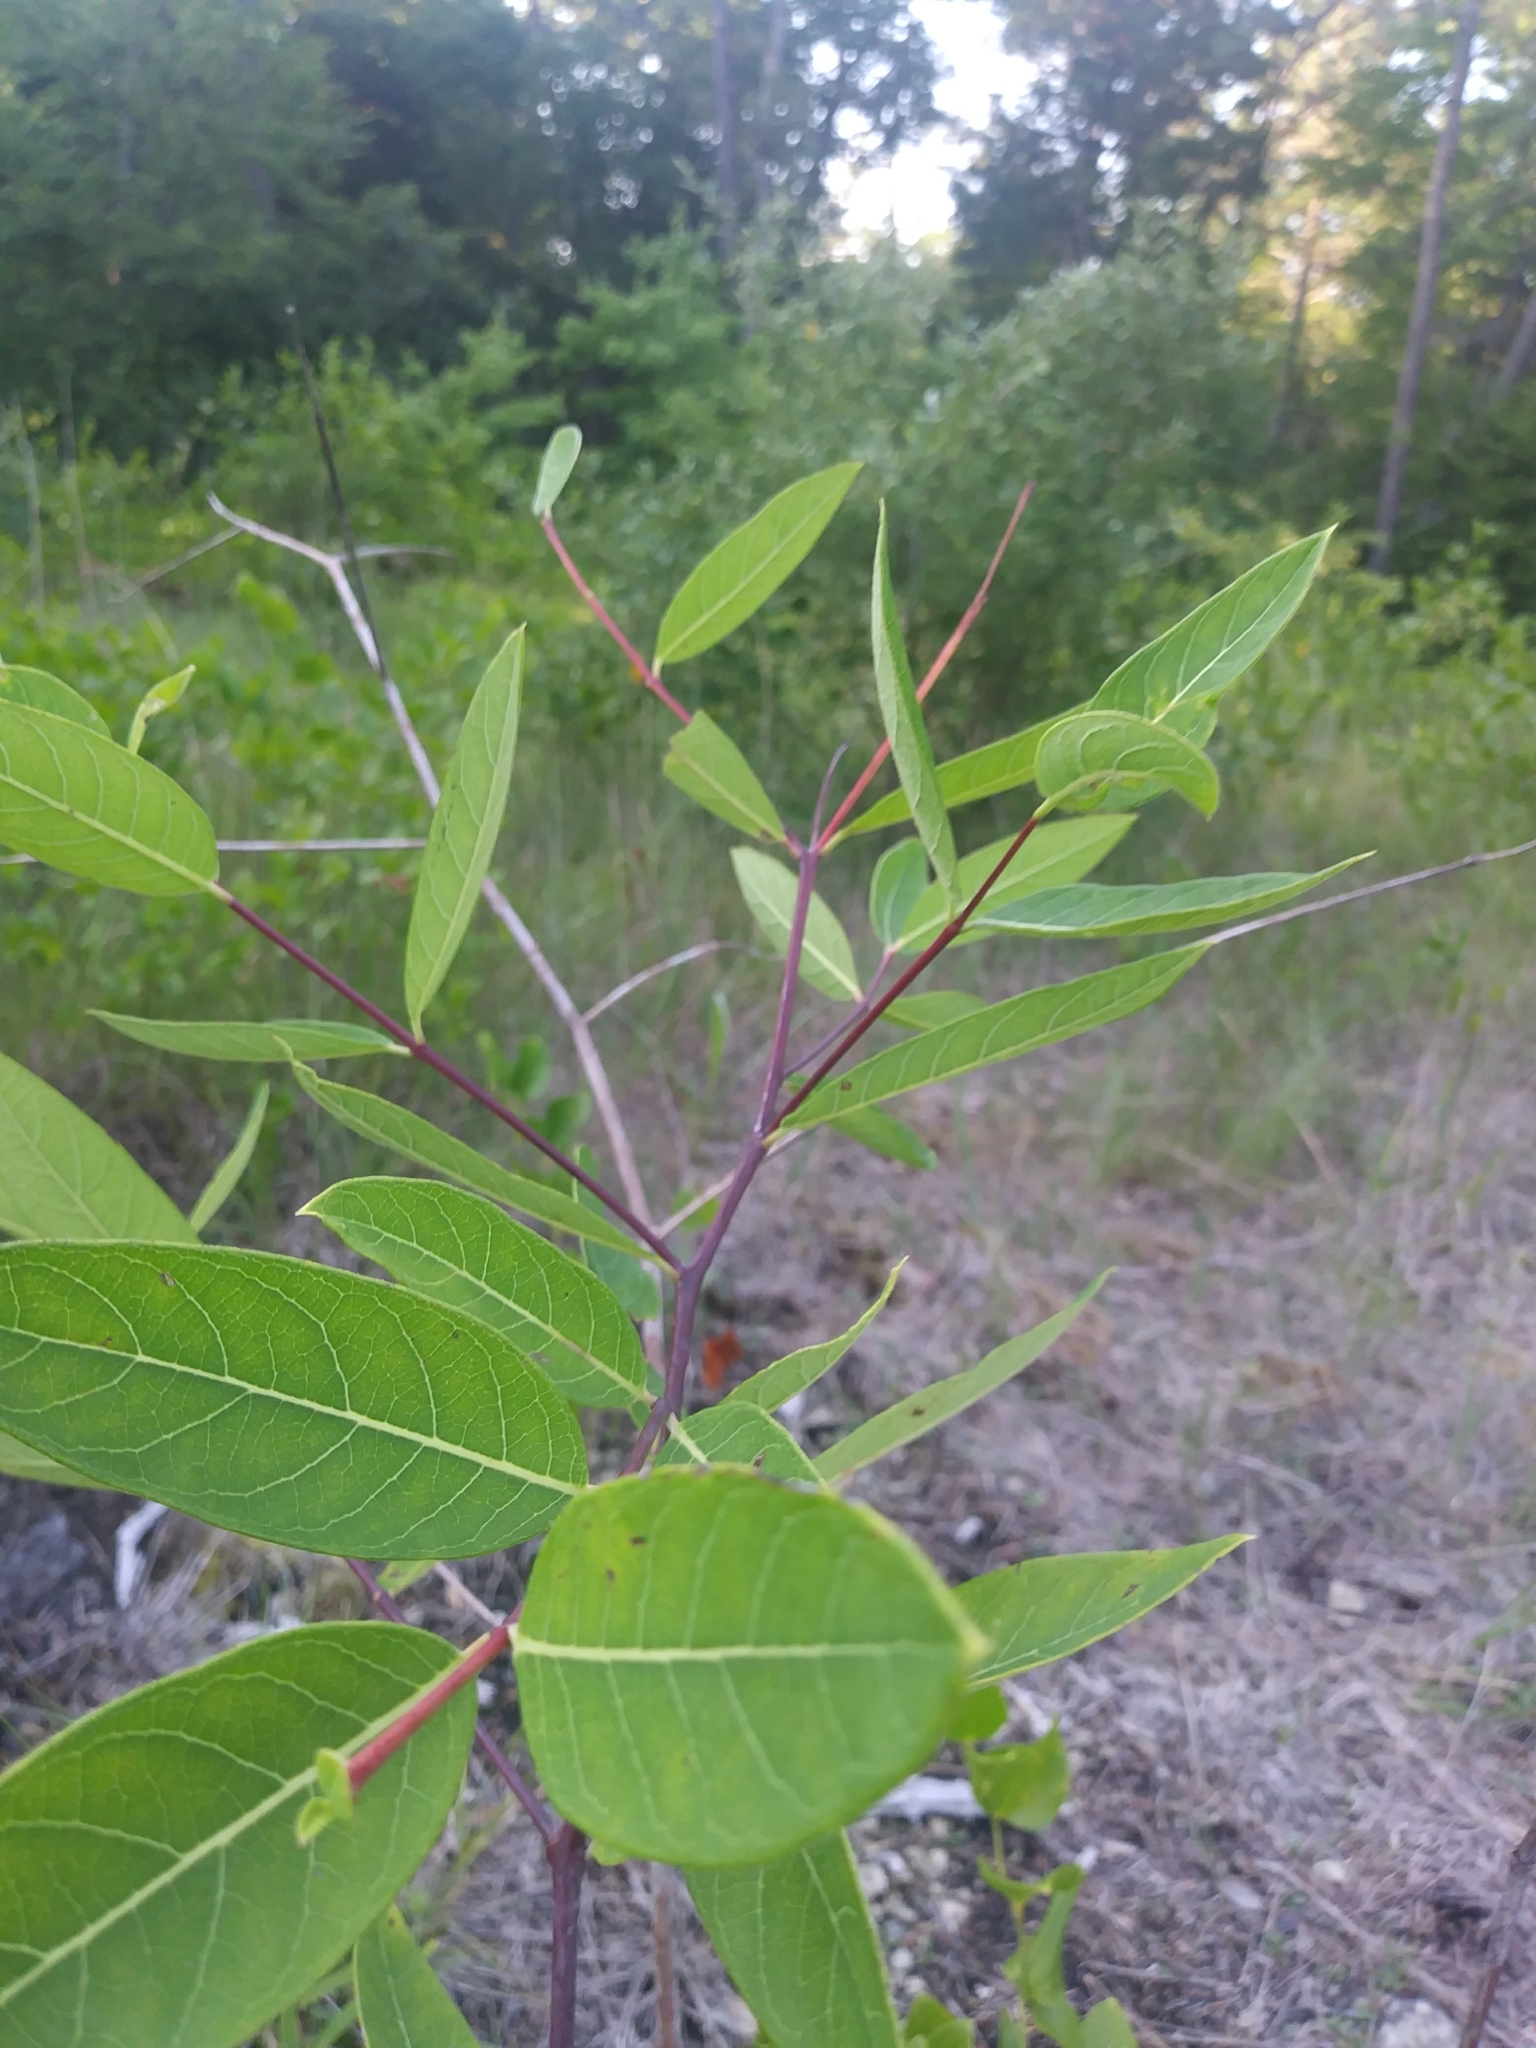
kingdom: Plantae
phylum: Tracheophyta
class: Magnoliopsida
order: Gentianales
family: Apocynaceae
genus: Apocynum
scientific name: Apocynum cannabinum
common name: Hemp dogbane
